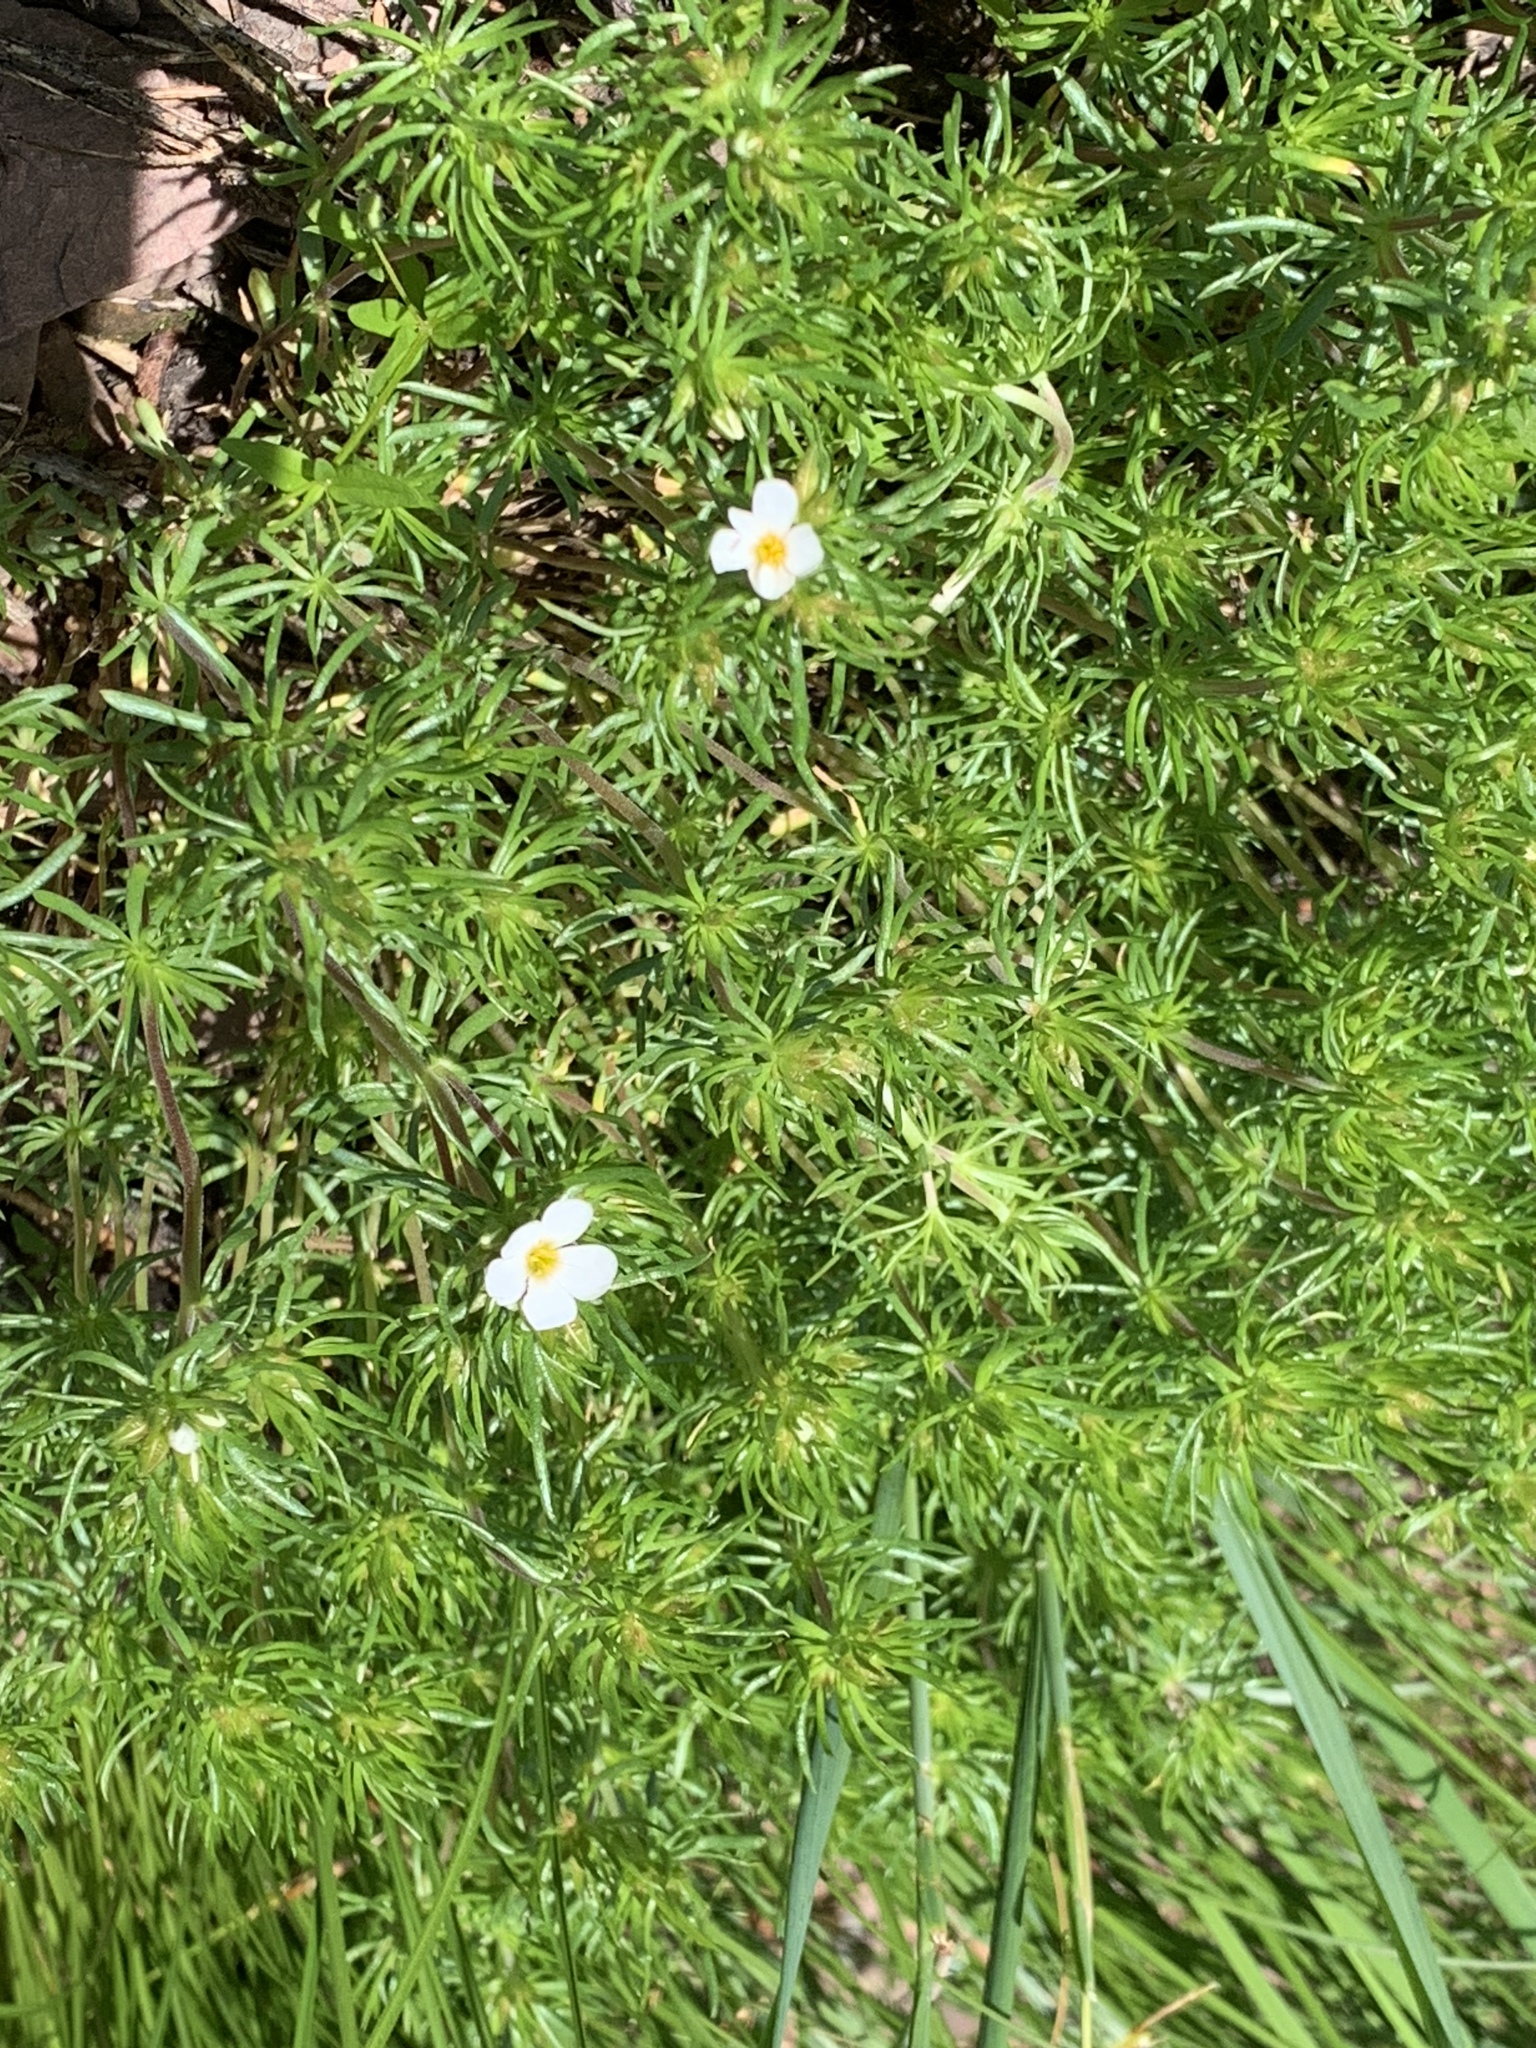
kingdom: Plantae
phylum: Tracheophyta
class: Magnoliopsida
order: Ericales
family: Polemoniaceae
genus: Leptosiphon
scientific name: Leptosiphon nuttallii
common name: Nuttall's linanthus
